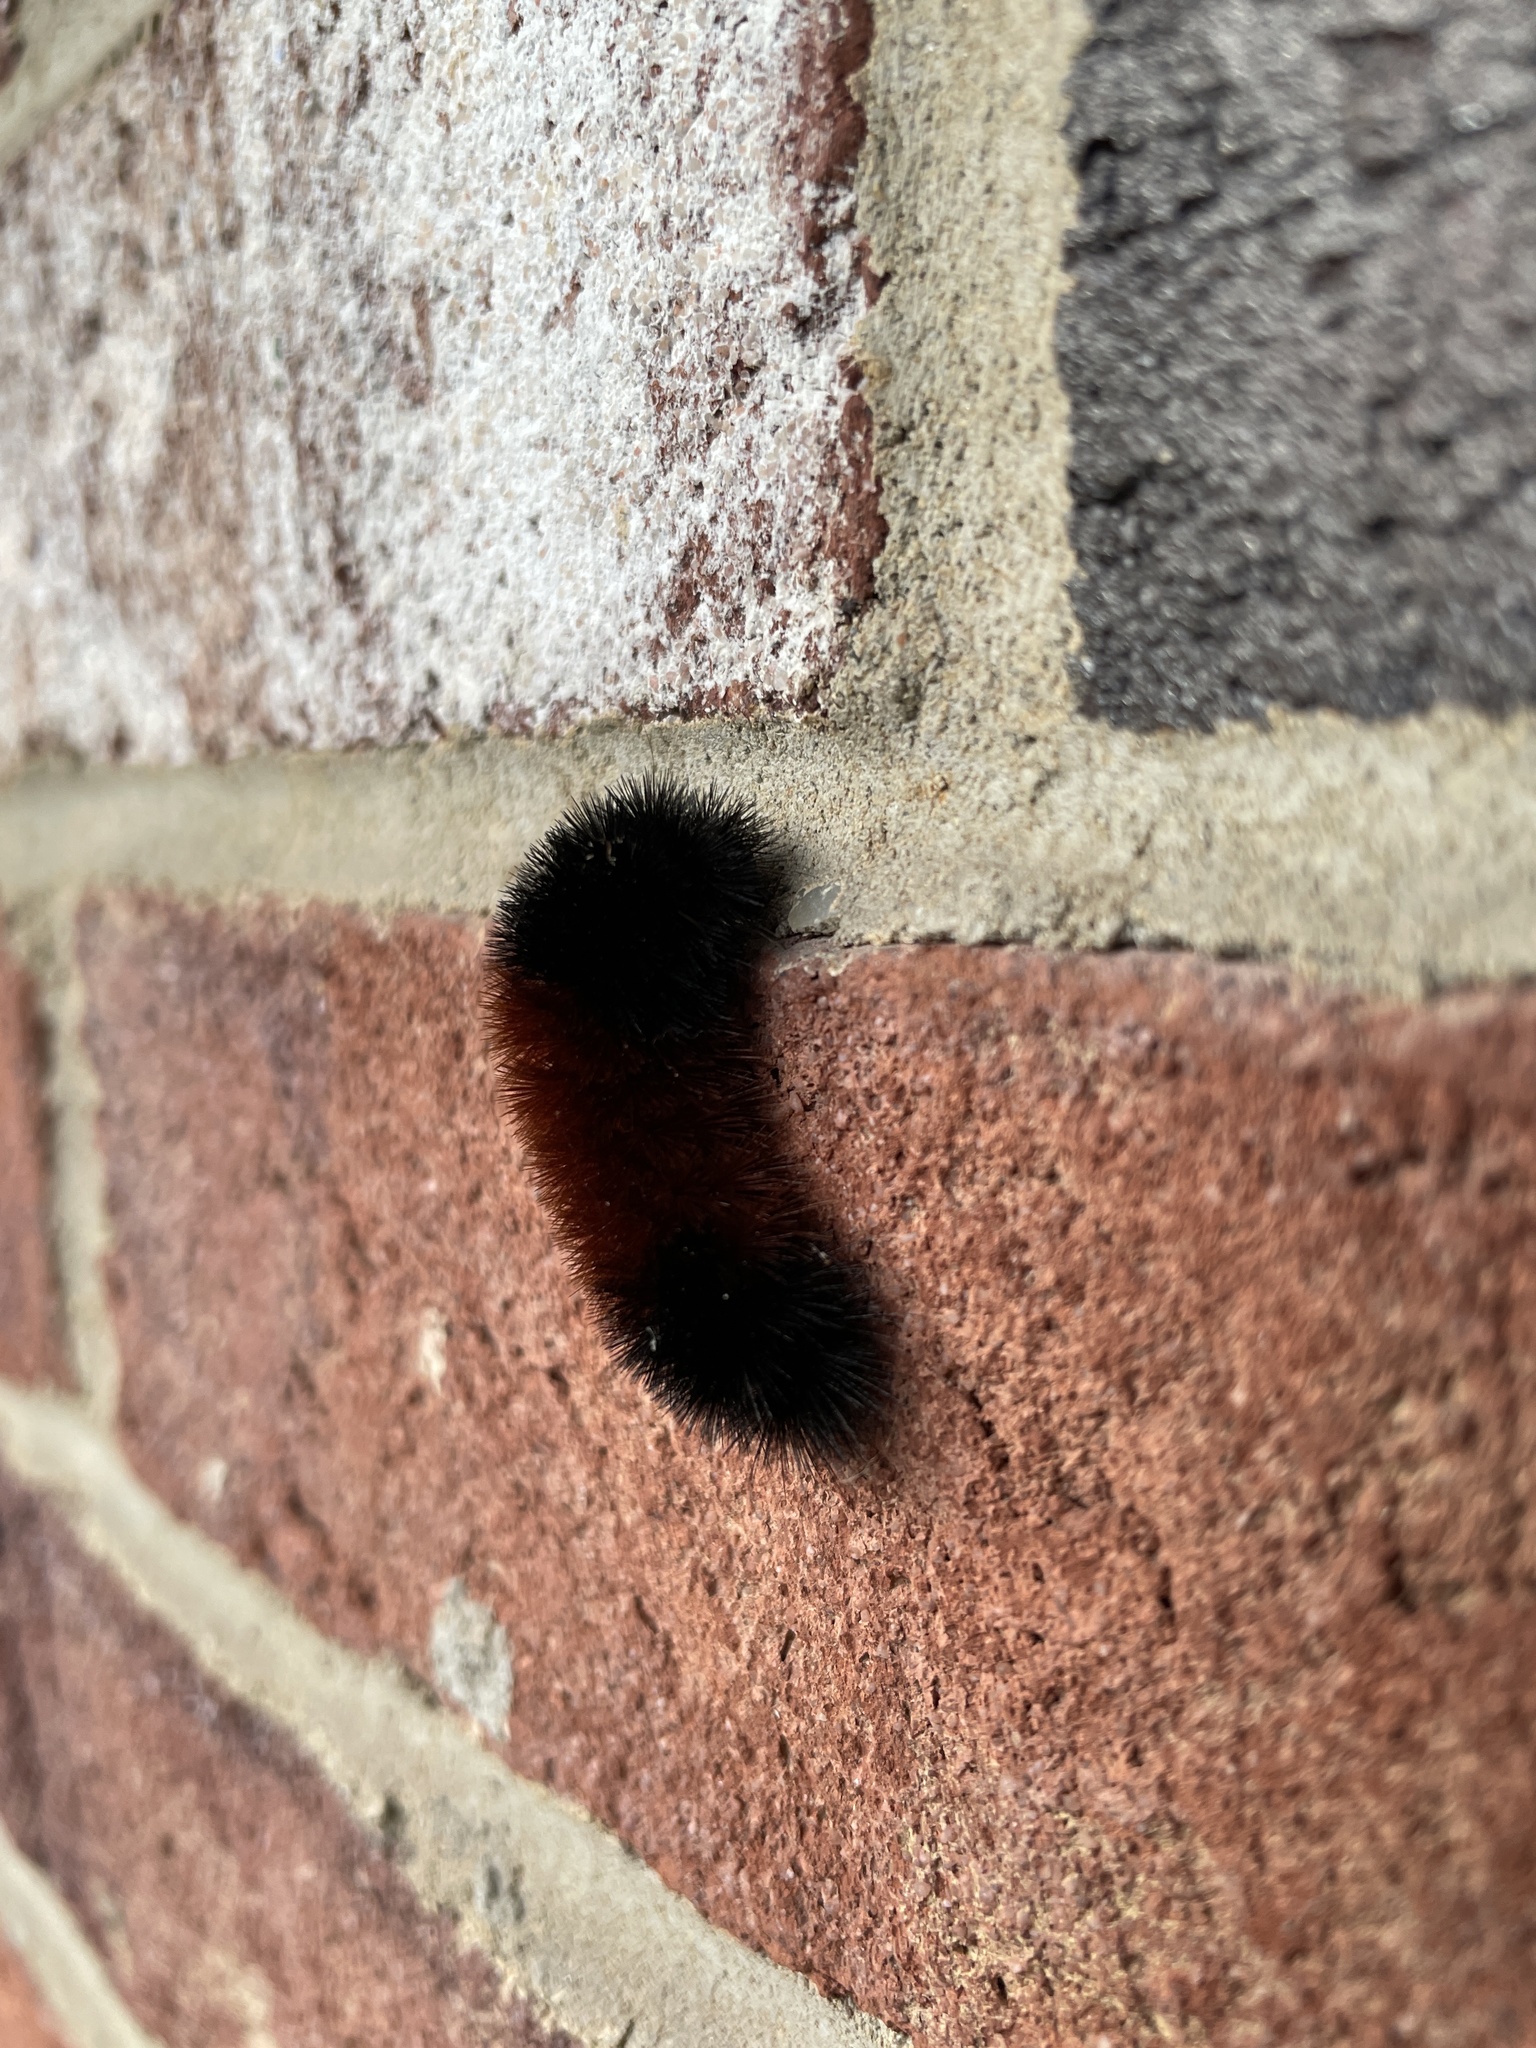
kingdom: Animalia
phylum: Arthropoda
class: Insecta
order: Lepidoptera
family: Erebidae
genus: Pyrrharctia
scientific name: Pyrrharctia isabella
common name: Isabella tiger moth
